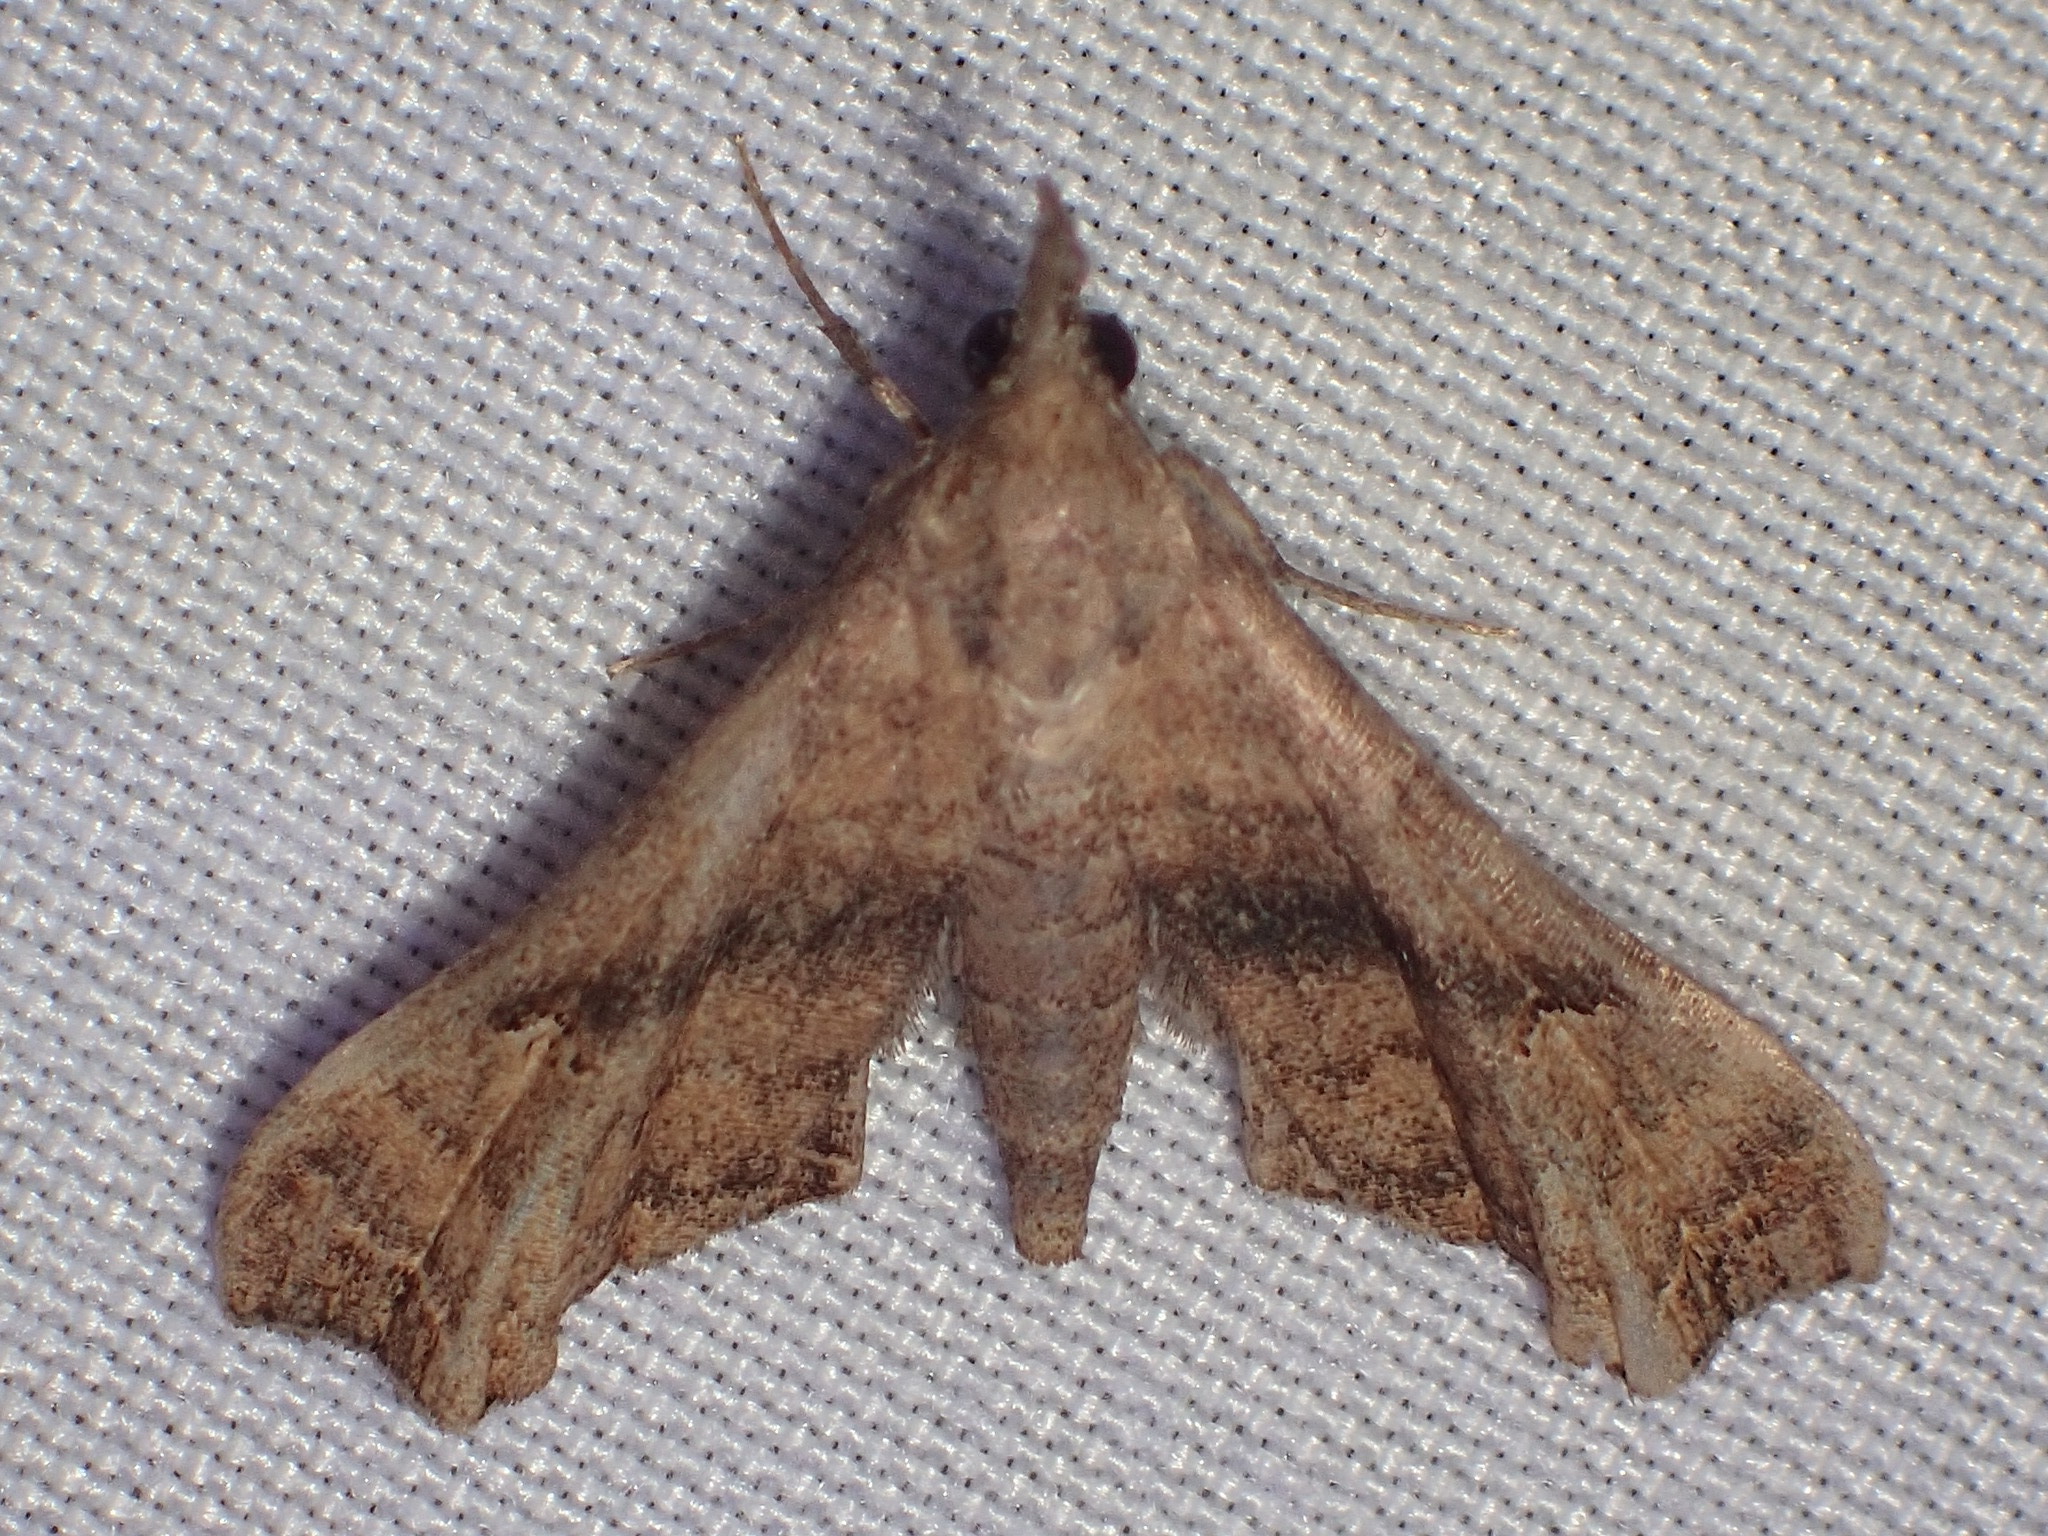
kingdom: Animalia
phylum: Arthropoda
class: Insecta
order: Lepidoptera
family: Erebidae
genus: Palthis
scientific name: Palthis asopialis
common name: Faint-spotted palthis moth
